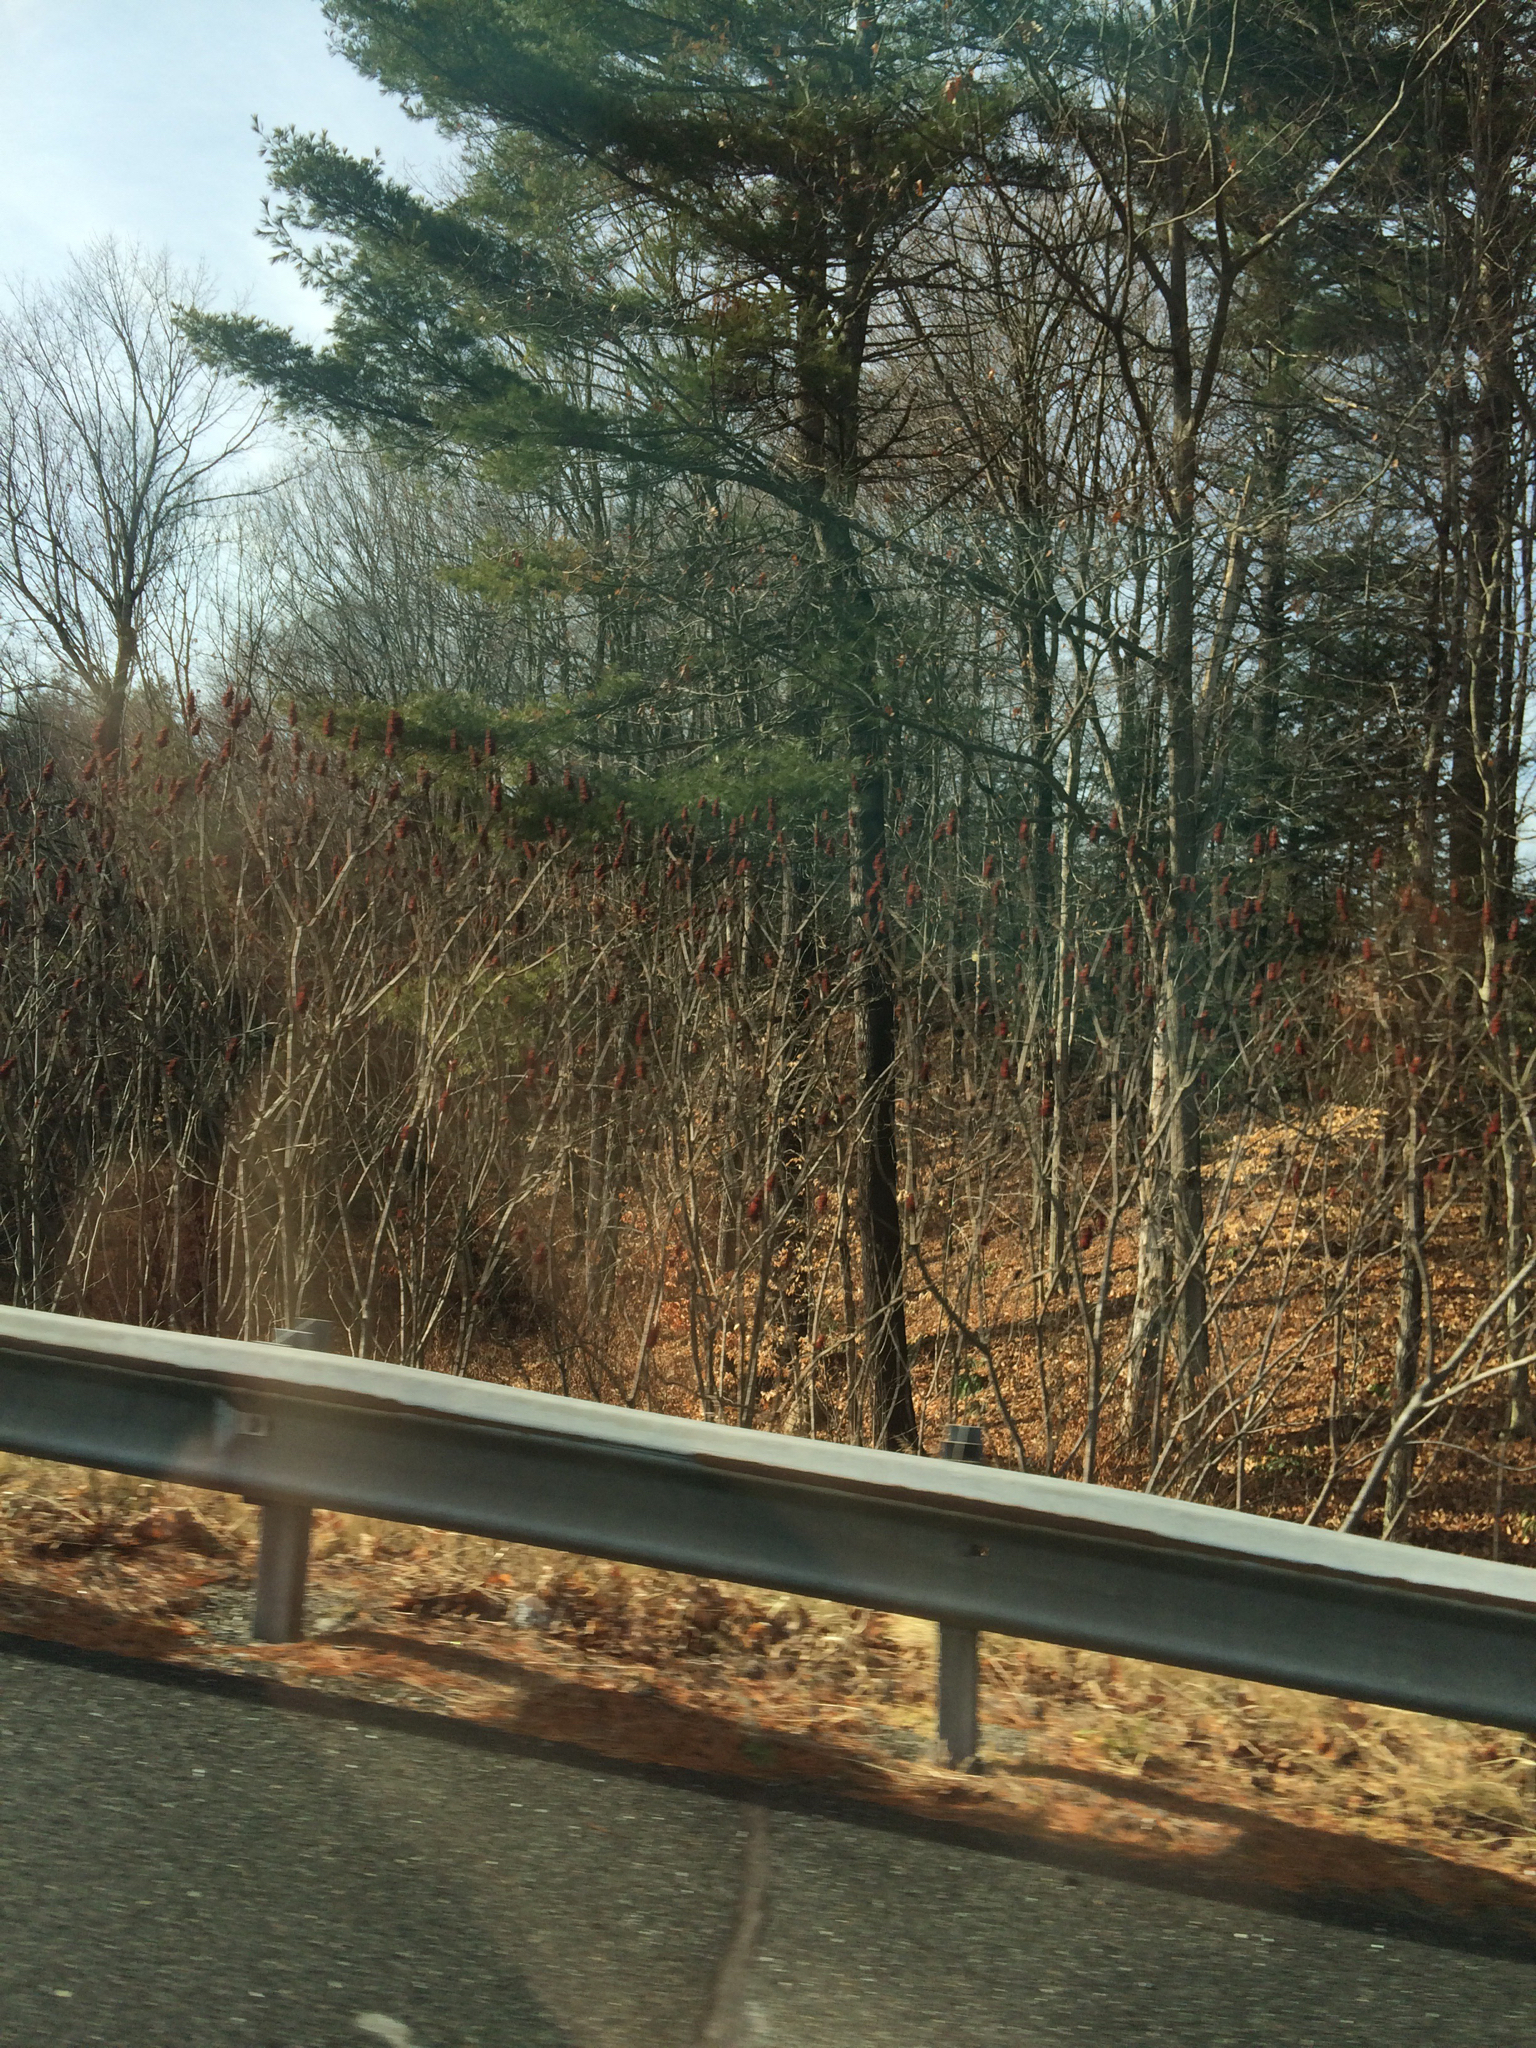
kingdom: Plantae
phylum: Tracheophyta
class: Magnoliopsida
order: Sapindales
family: Anacardiaceae
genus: Rhus
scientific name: Rhus typhina
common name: Staghorn sumac
